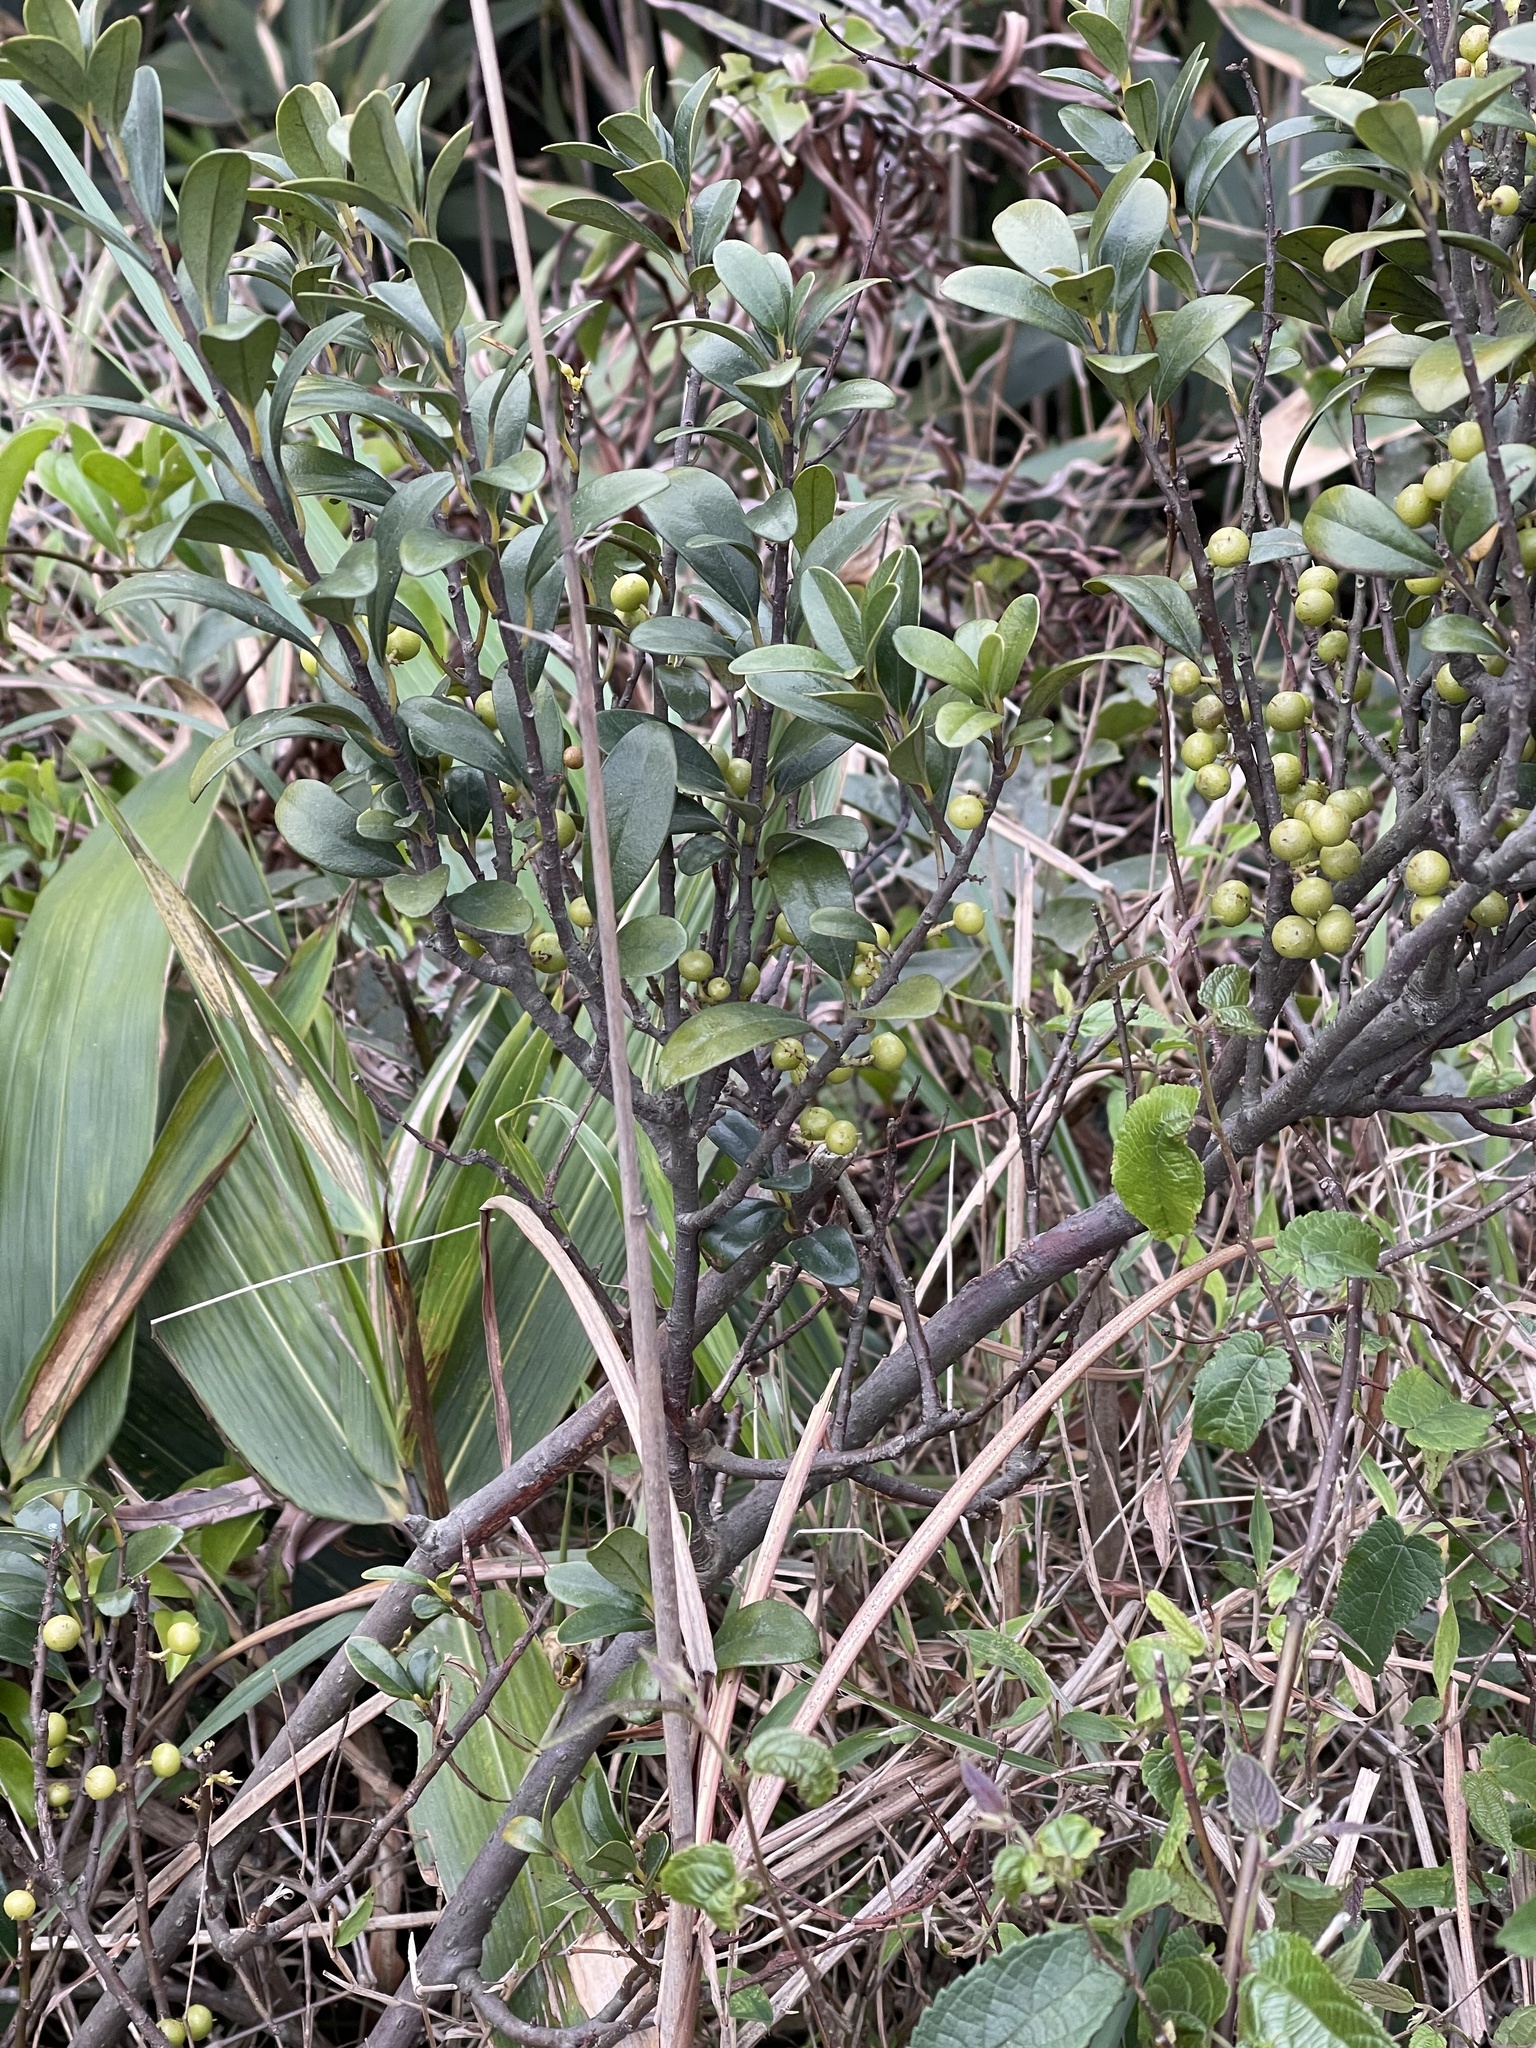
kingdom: Plantae
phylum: Tracheophyta
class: Magnoliopsida
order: Ericales
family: Primulaceae
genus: Embelia
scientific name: Embelia laeta
